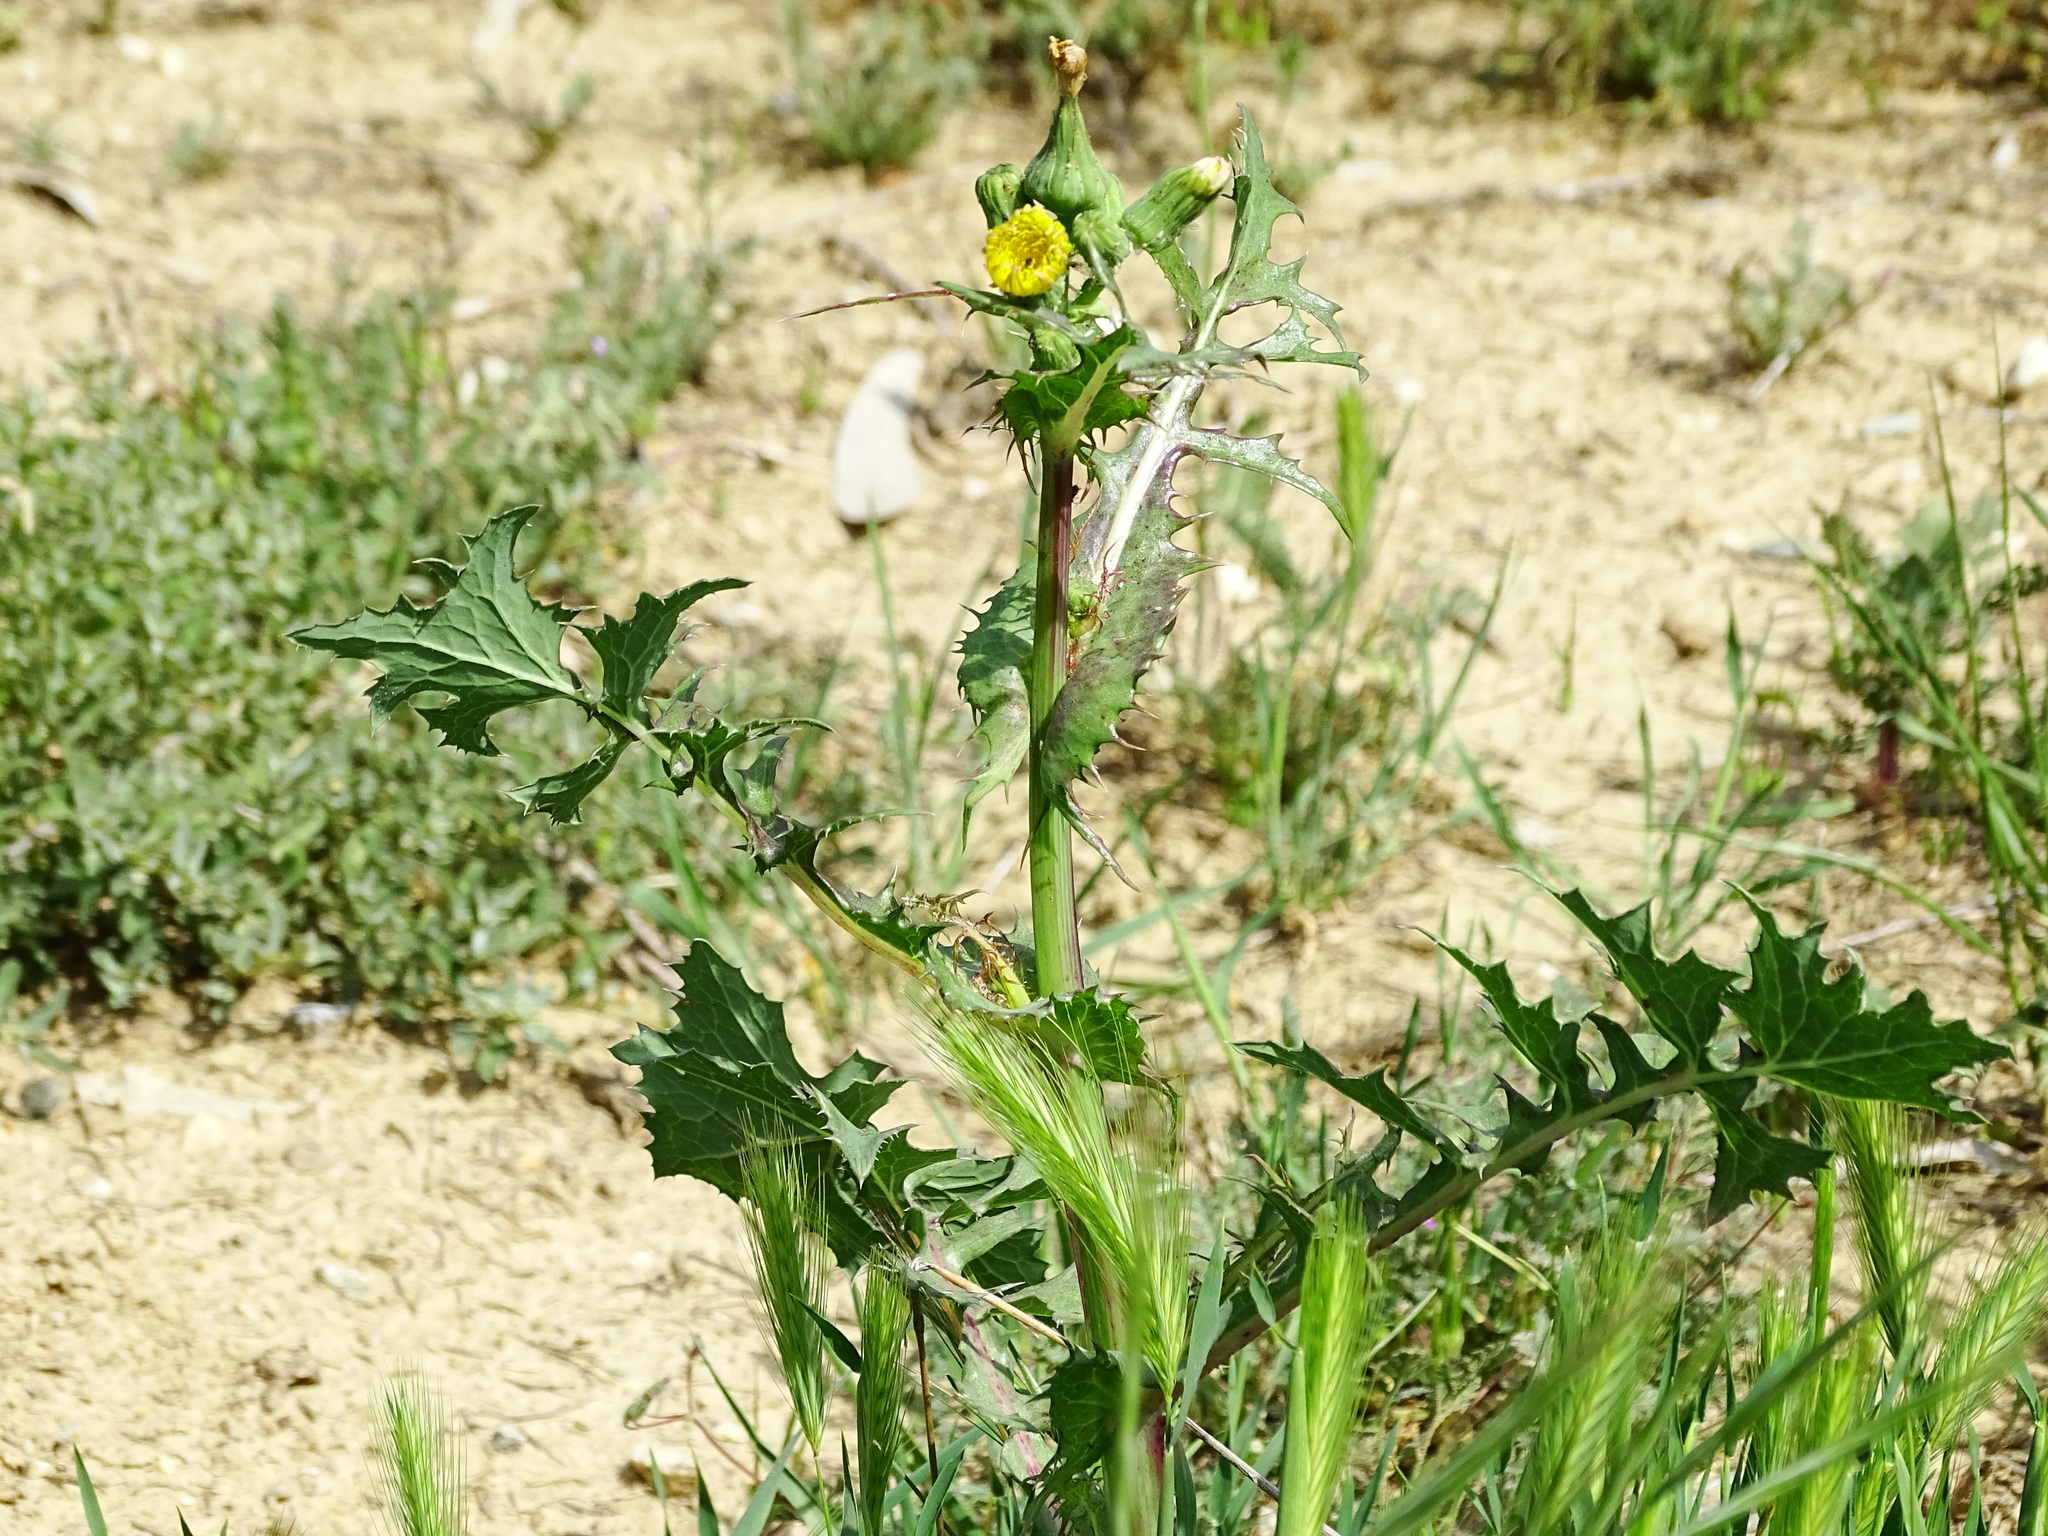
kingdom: Plantae
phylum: Tracheophyta
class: Magnoliopsida
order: Asterales
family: Asteraceae
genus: Sonchus
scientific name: Sonchus asper
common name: Prickly sow-thistle
